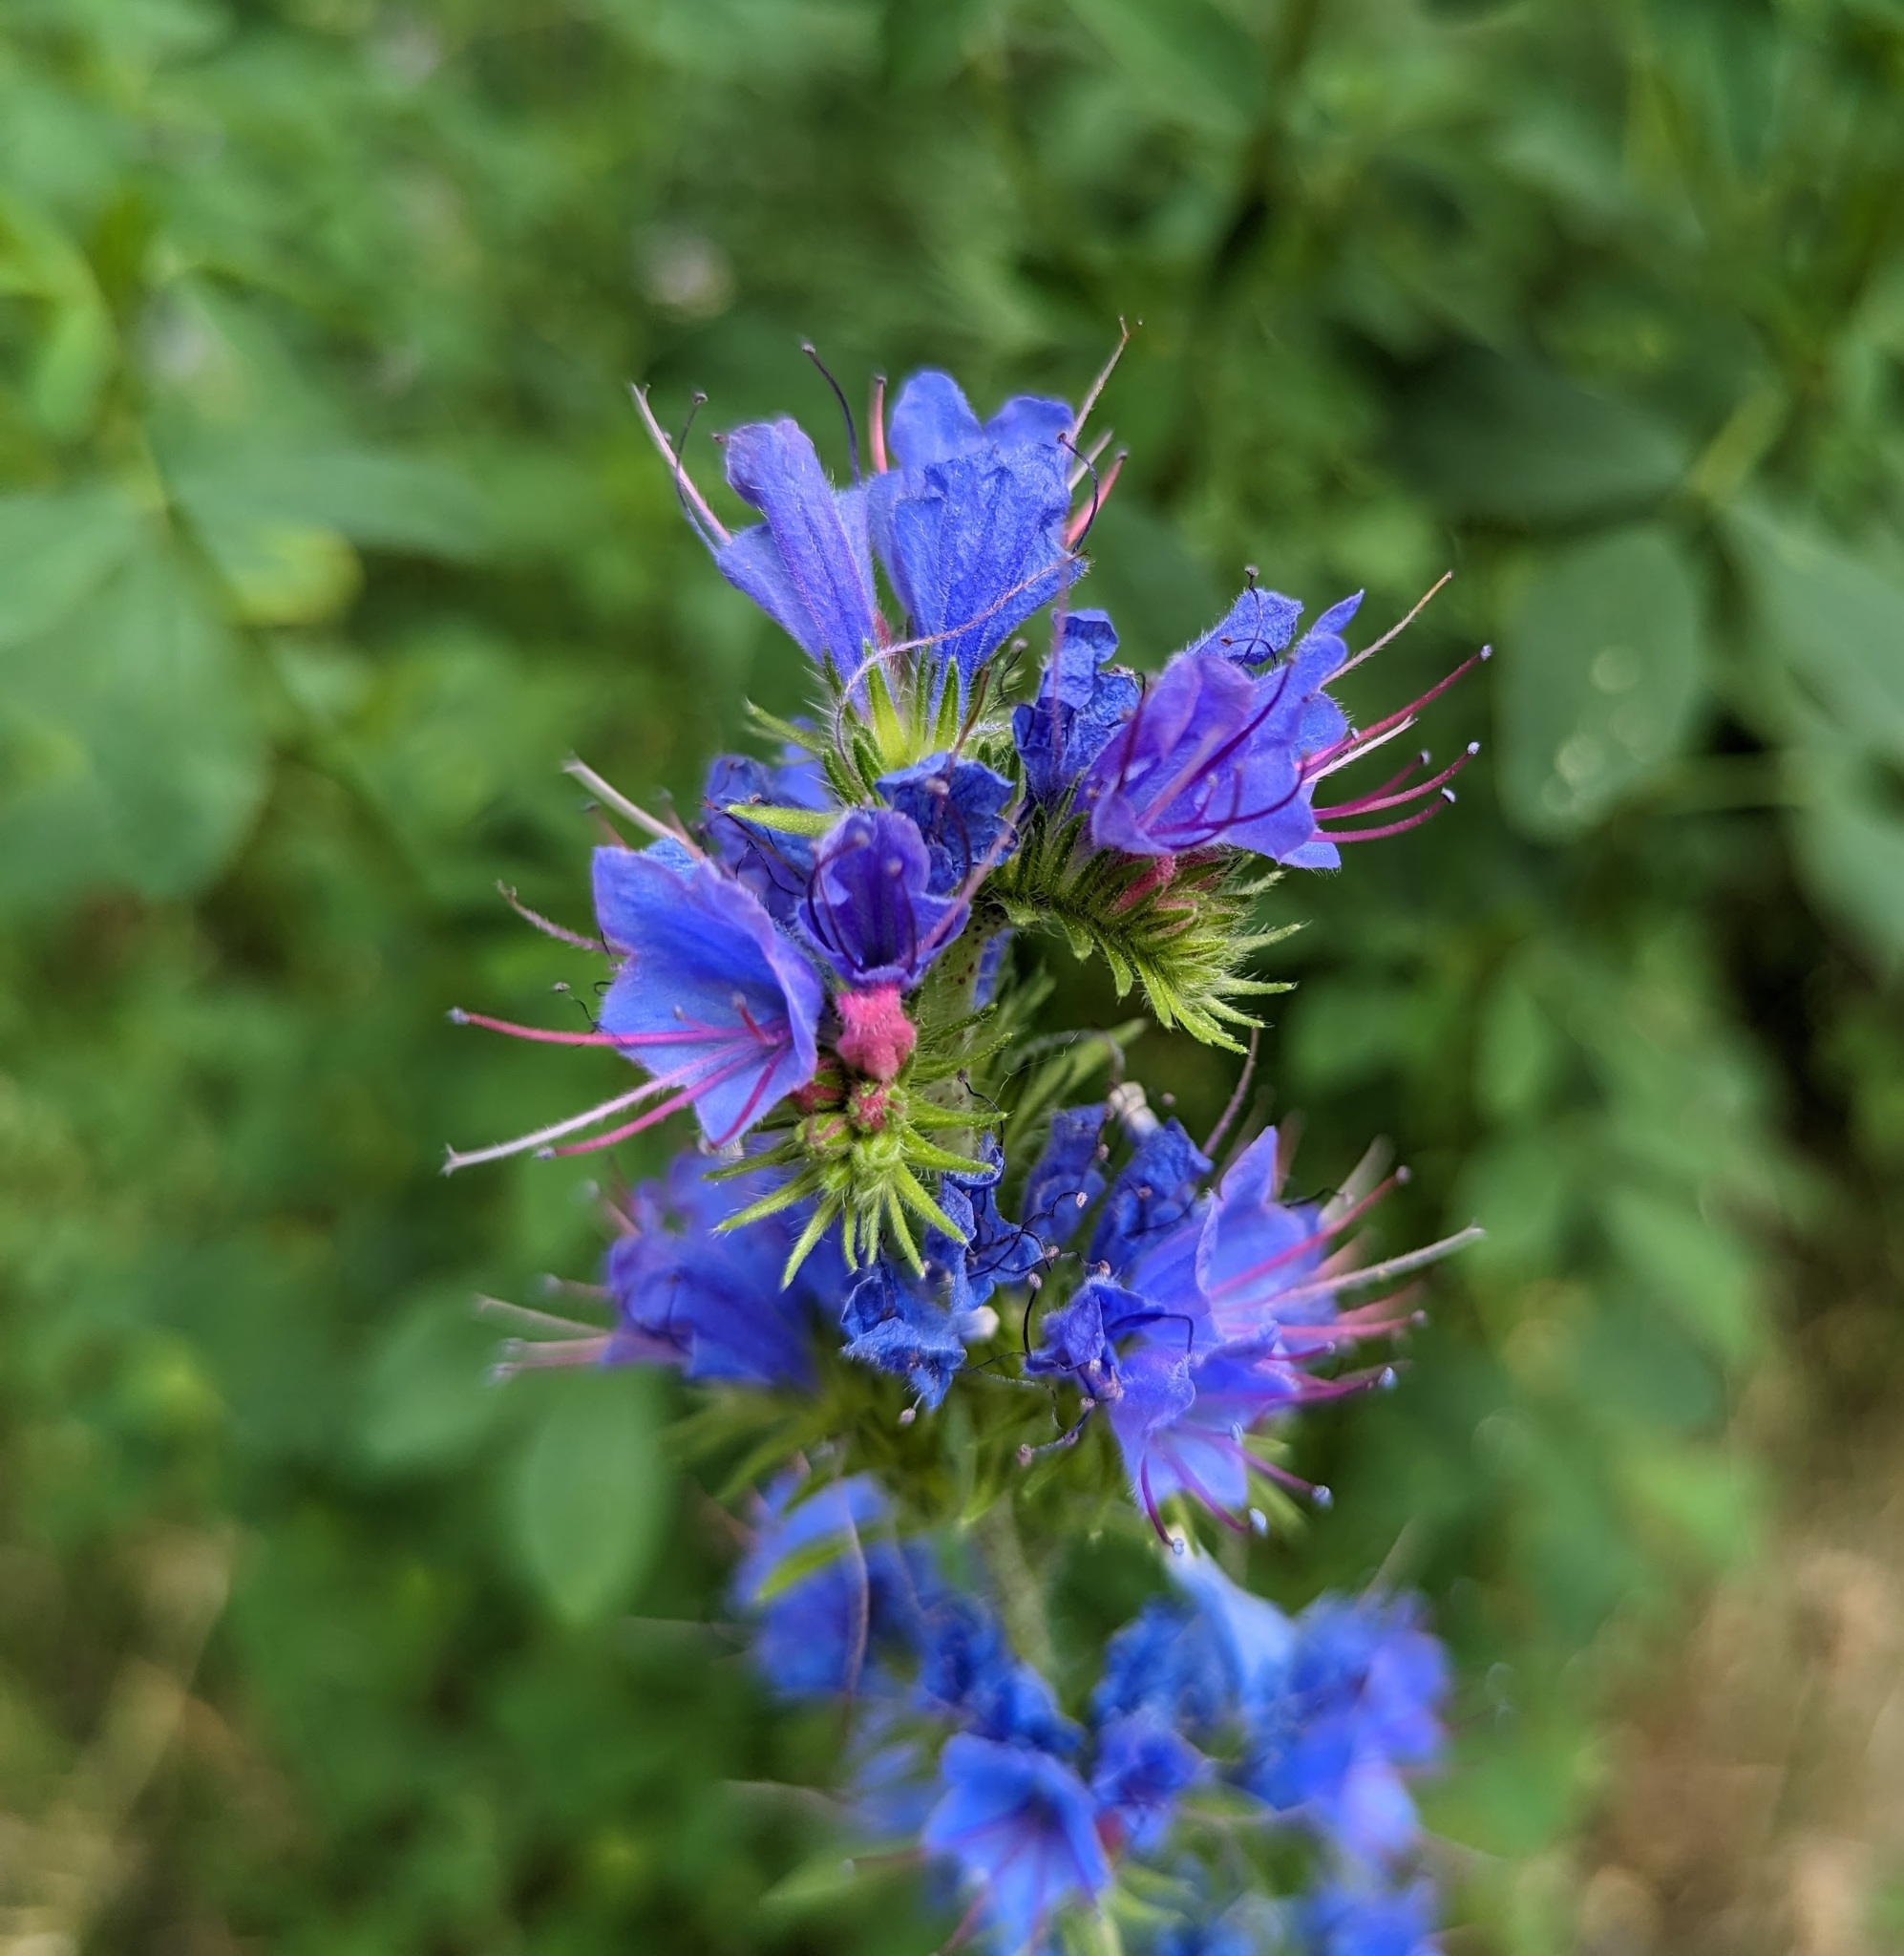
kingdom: Plantae
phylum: Tracheophyta
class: Magnoliopsida
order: Boraginales
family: Boraginaceae
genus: Echium
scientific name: Echium vulgare
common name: Common viper's bugloss
